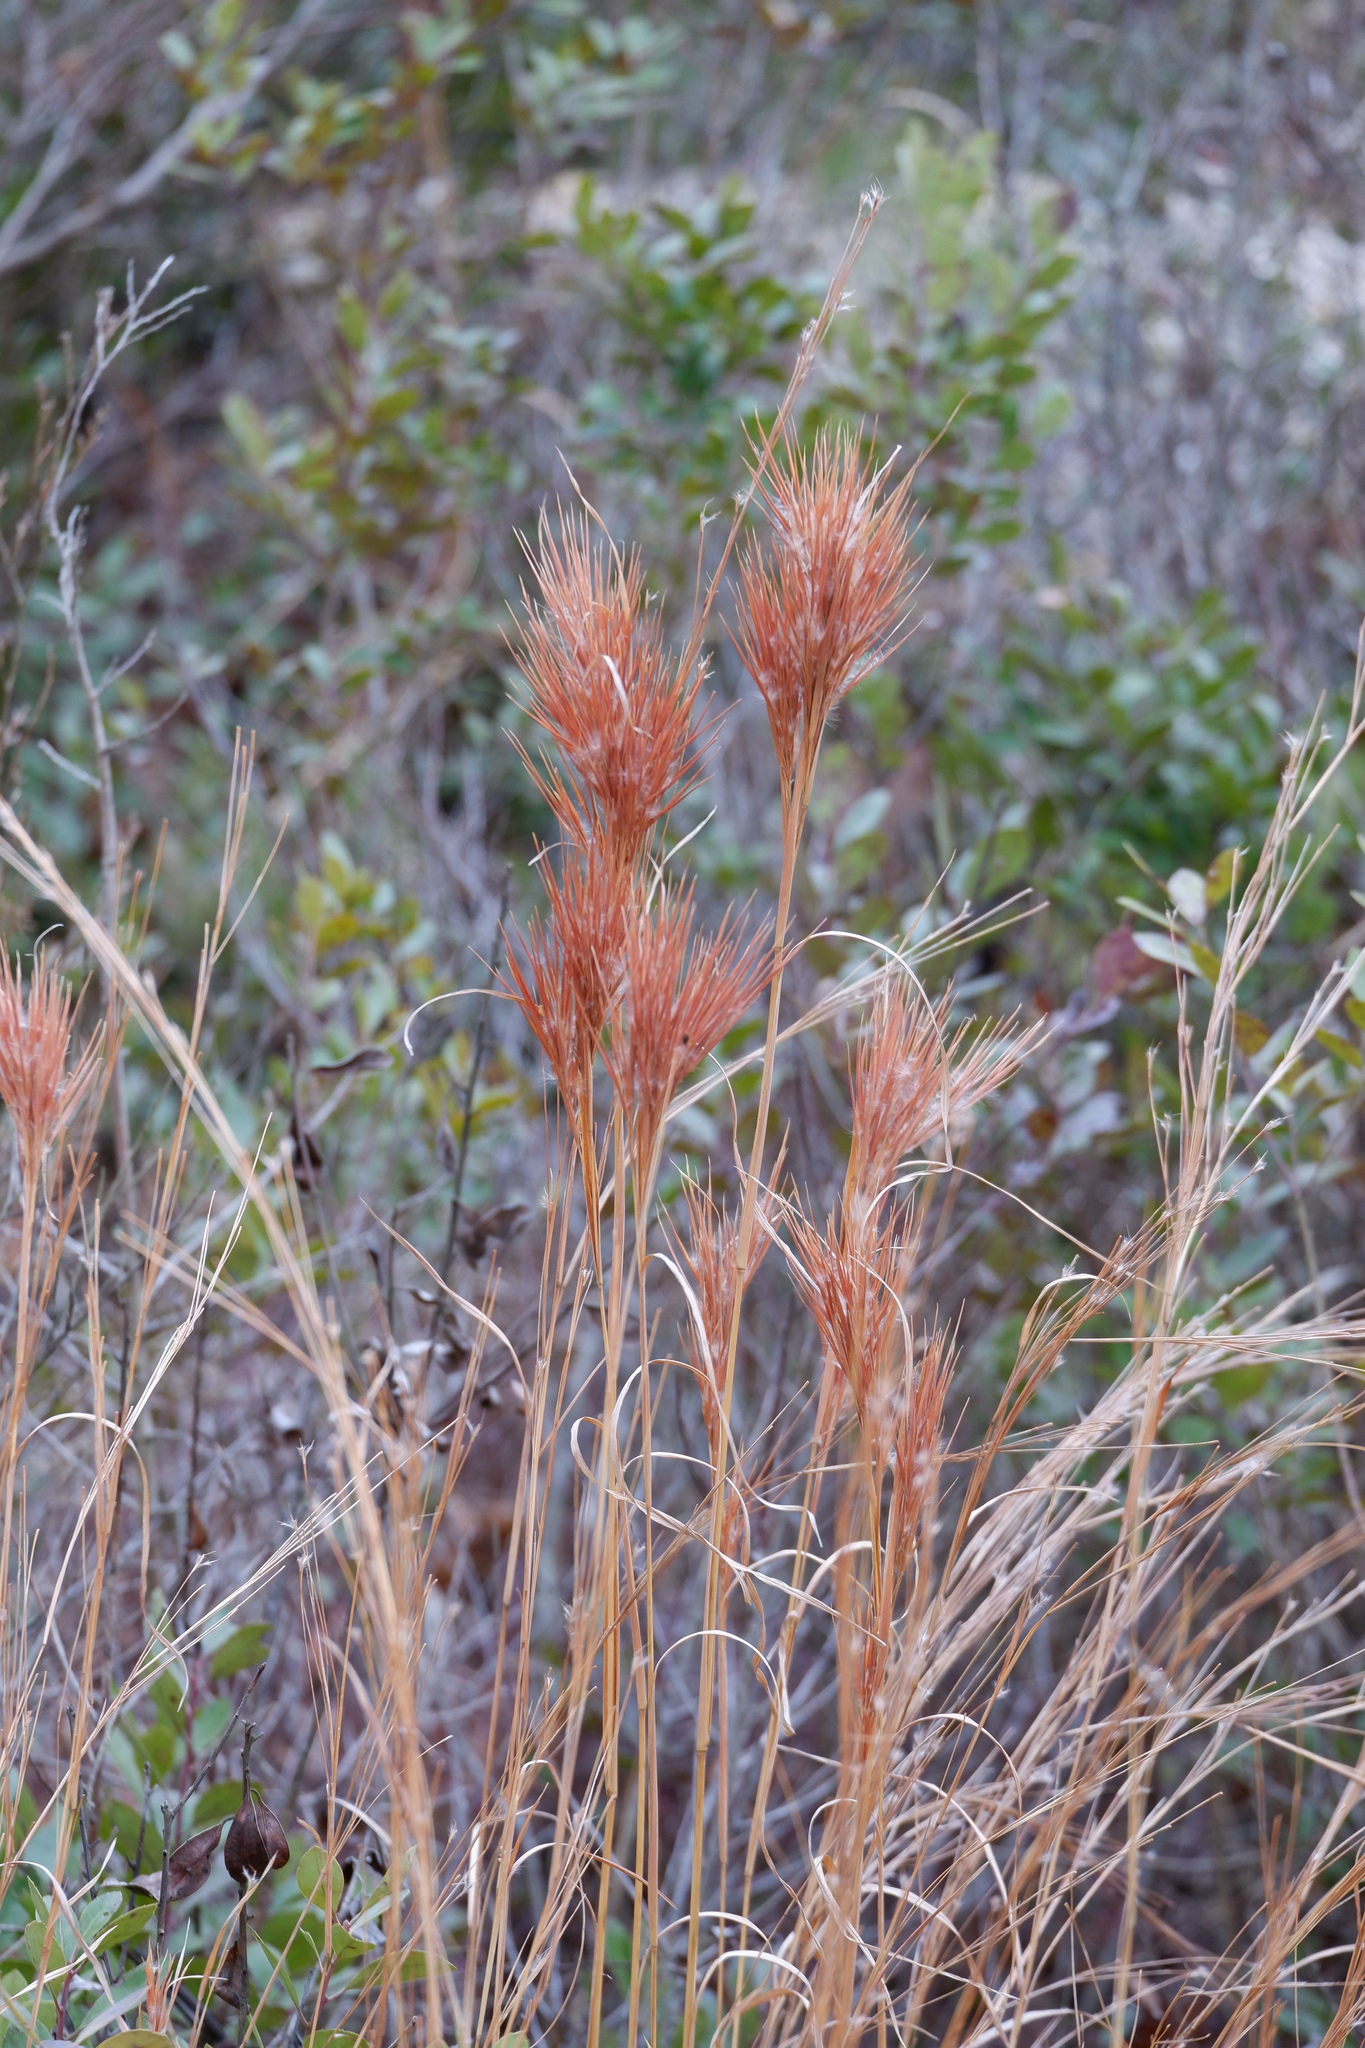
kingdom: Plantae
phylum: Tracheophyta
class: Liliopsida
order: Poales
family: Poaceae
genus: Andropogon
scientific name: Andropogon glomeratus
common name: Bushy beard grass
